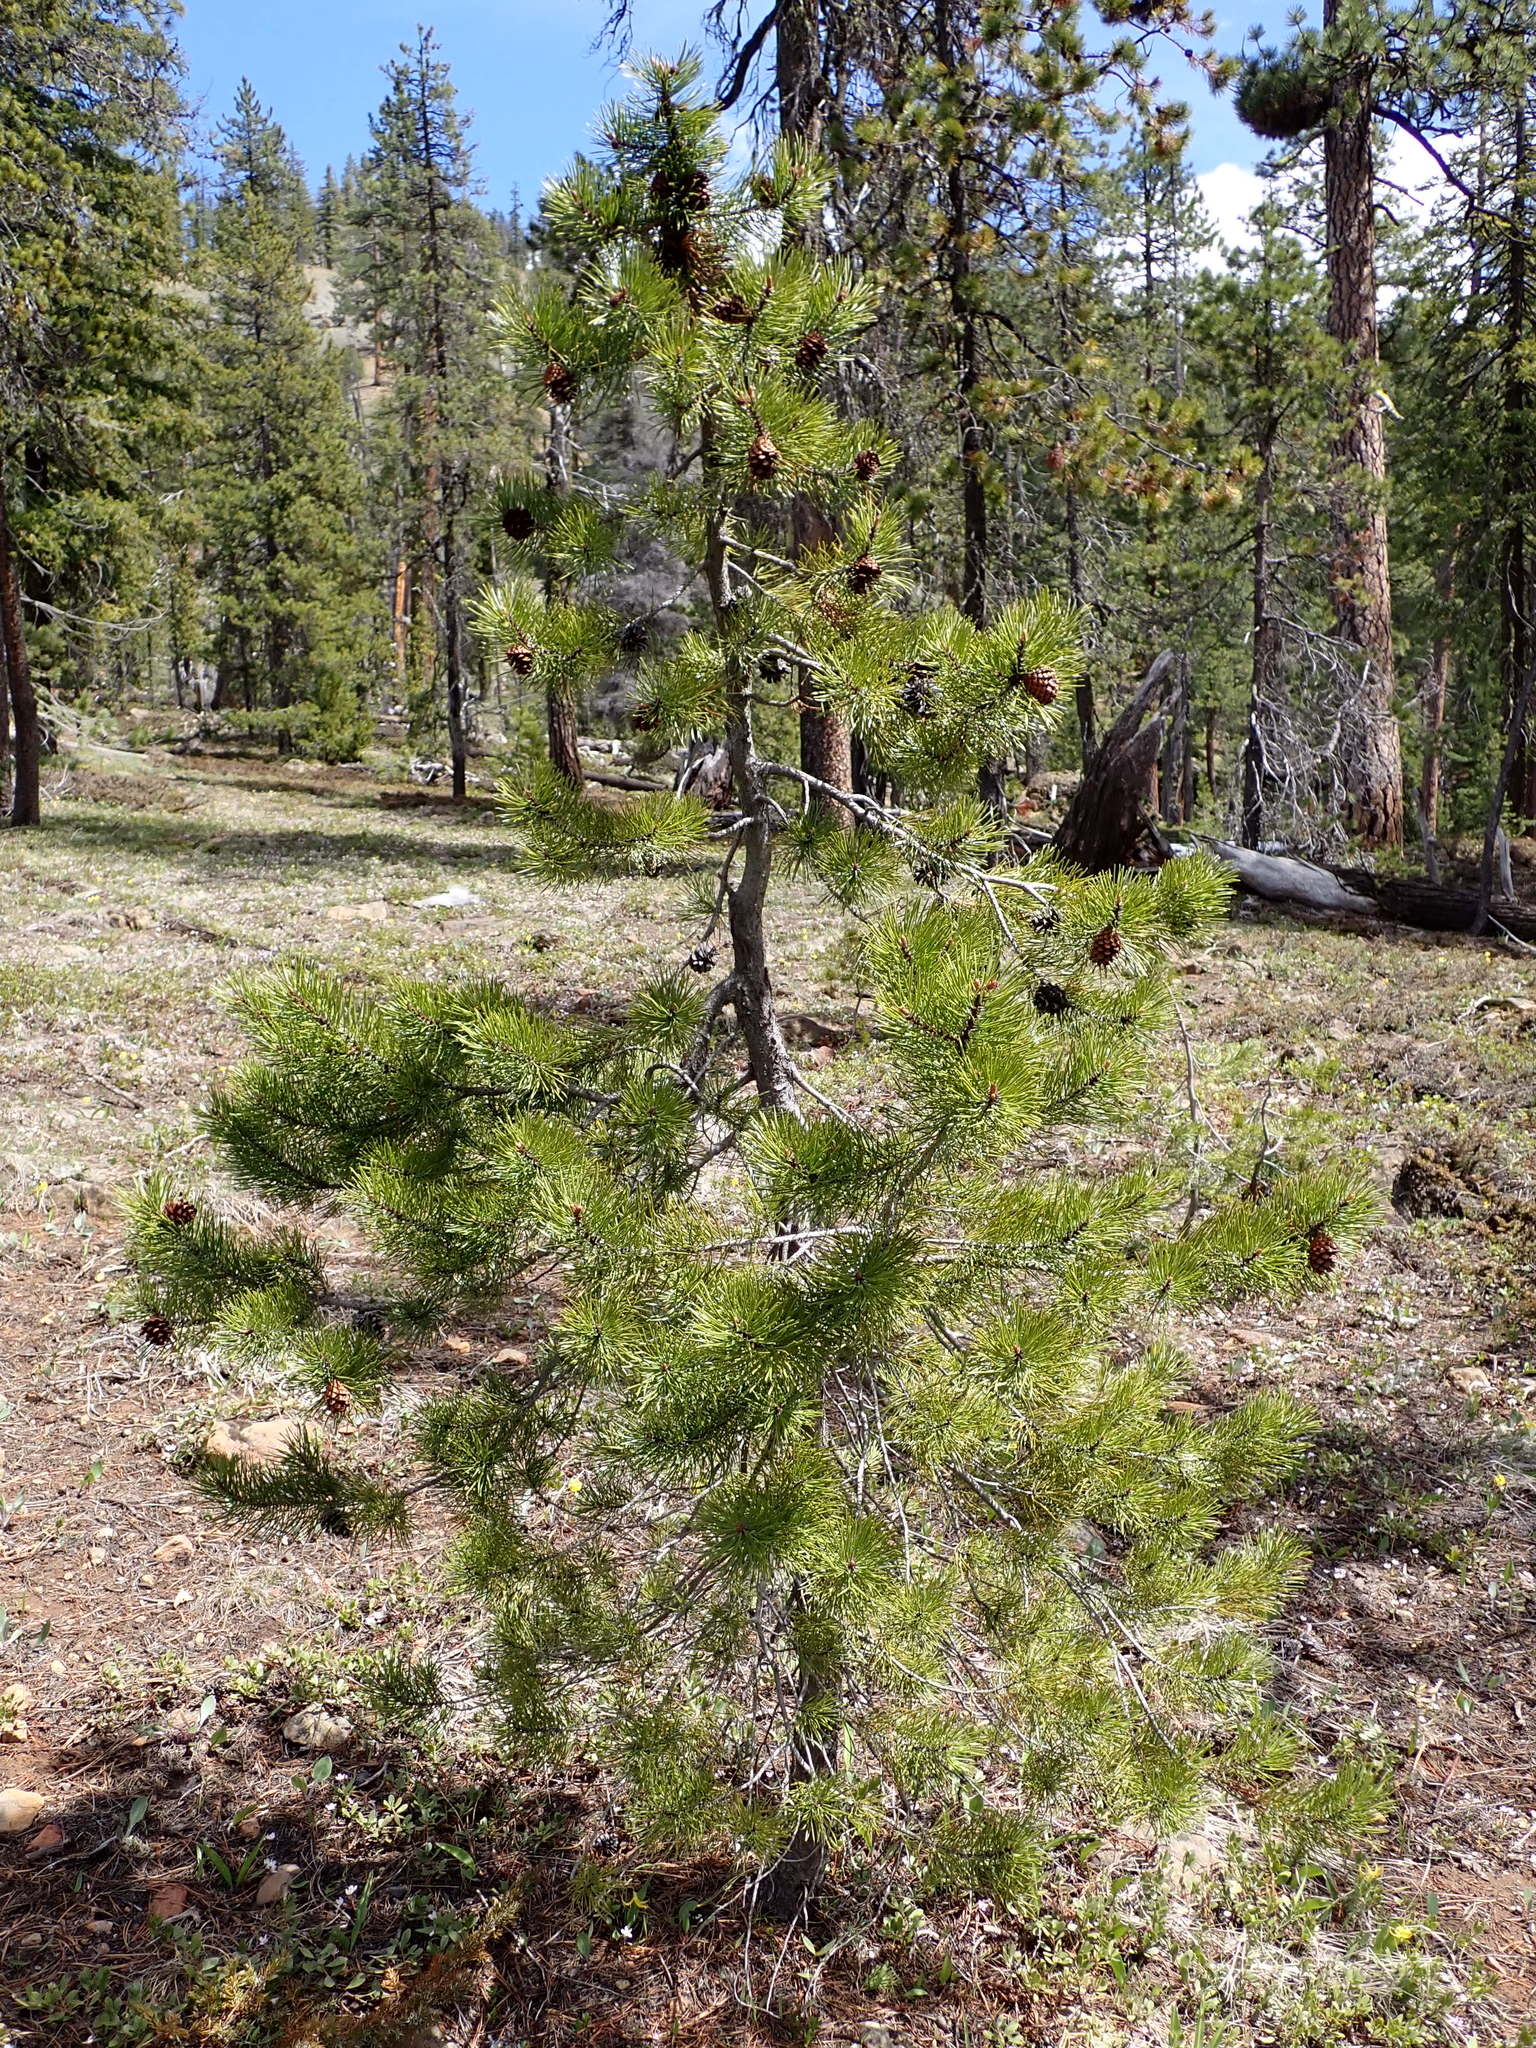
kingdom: Plantae
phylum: Tracheophyta
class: Pinopsida
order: Pinales
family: Pinaceae
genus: Pinus
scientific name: Pinus contorta
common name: Lodgepole pine
